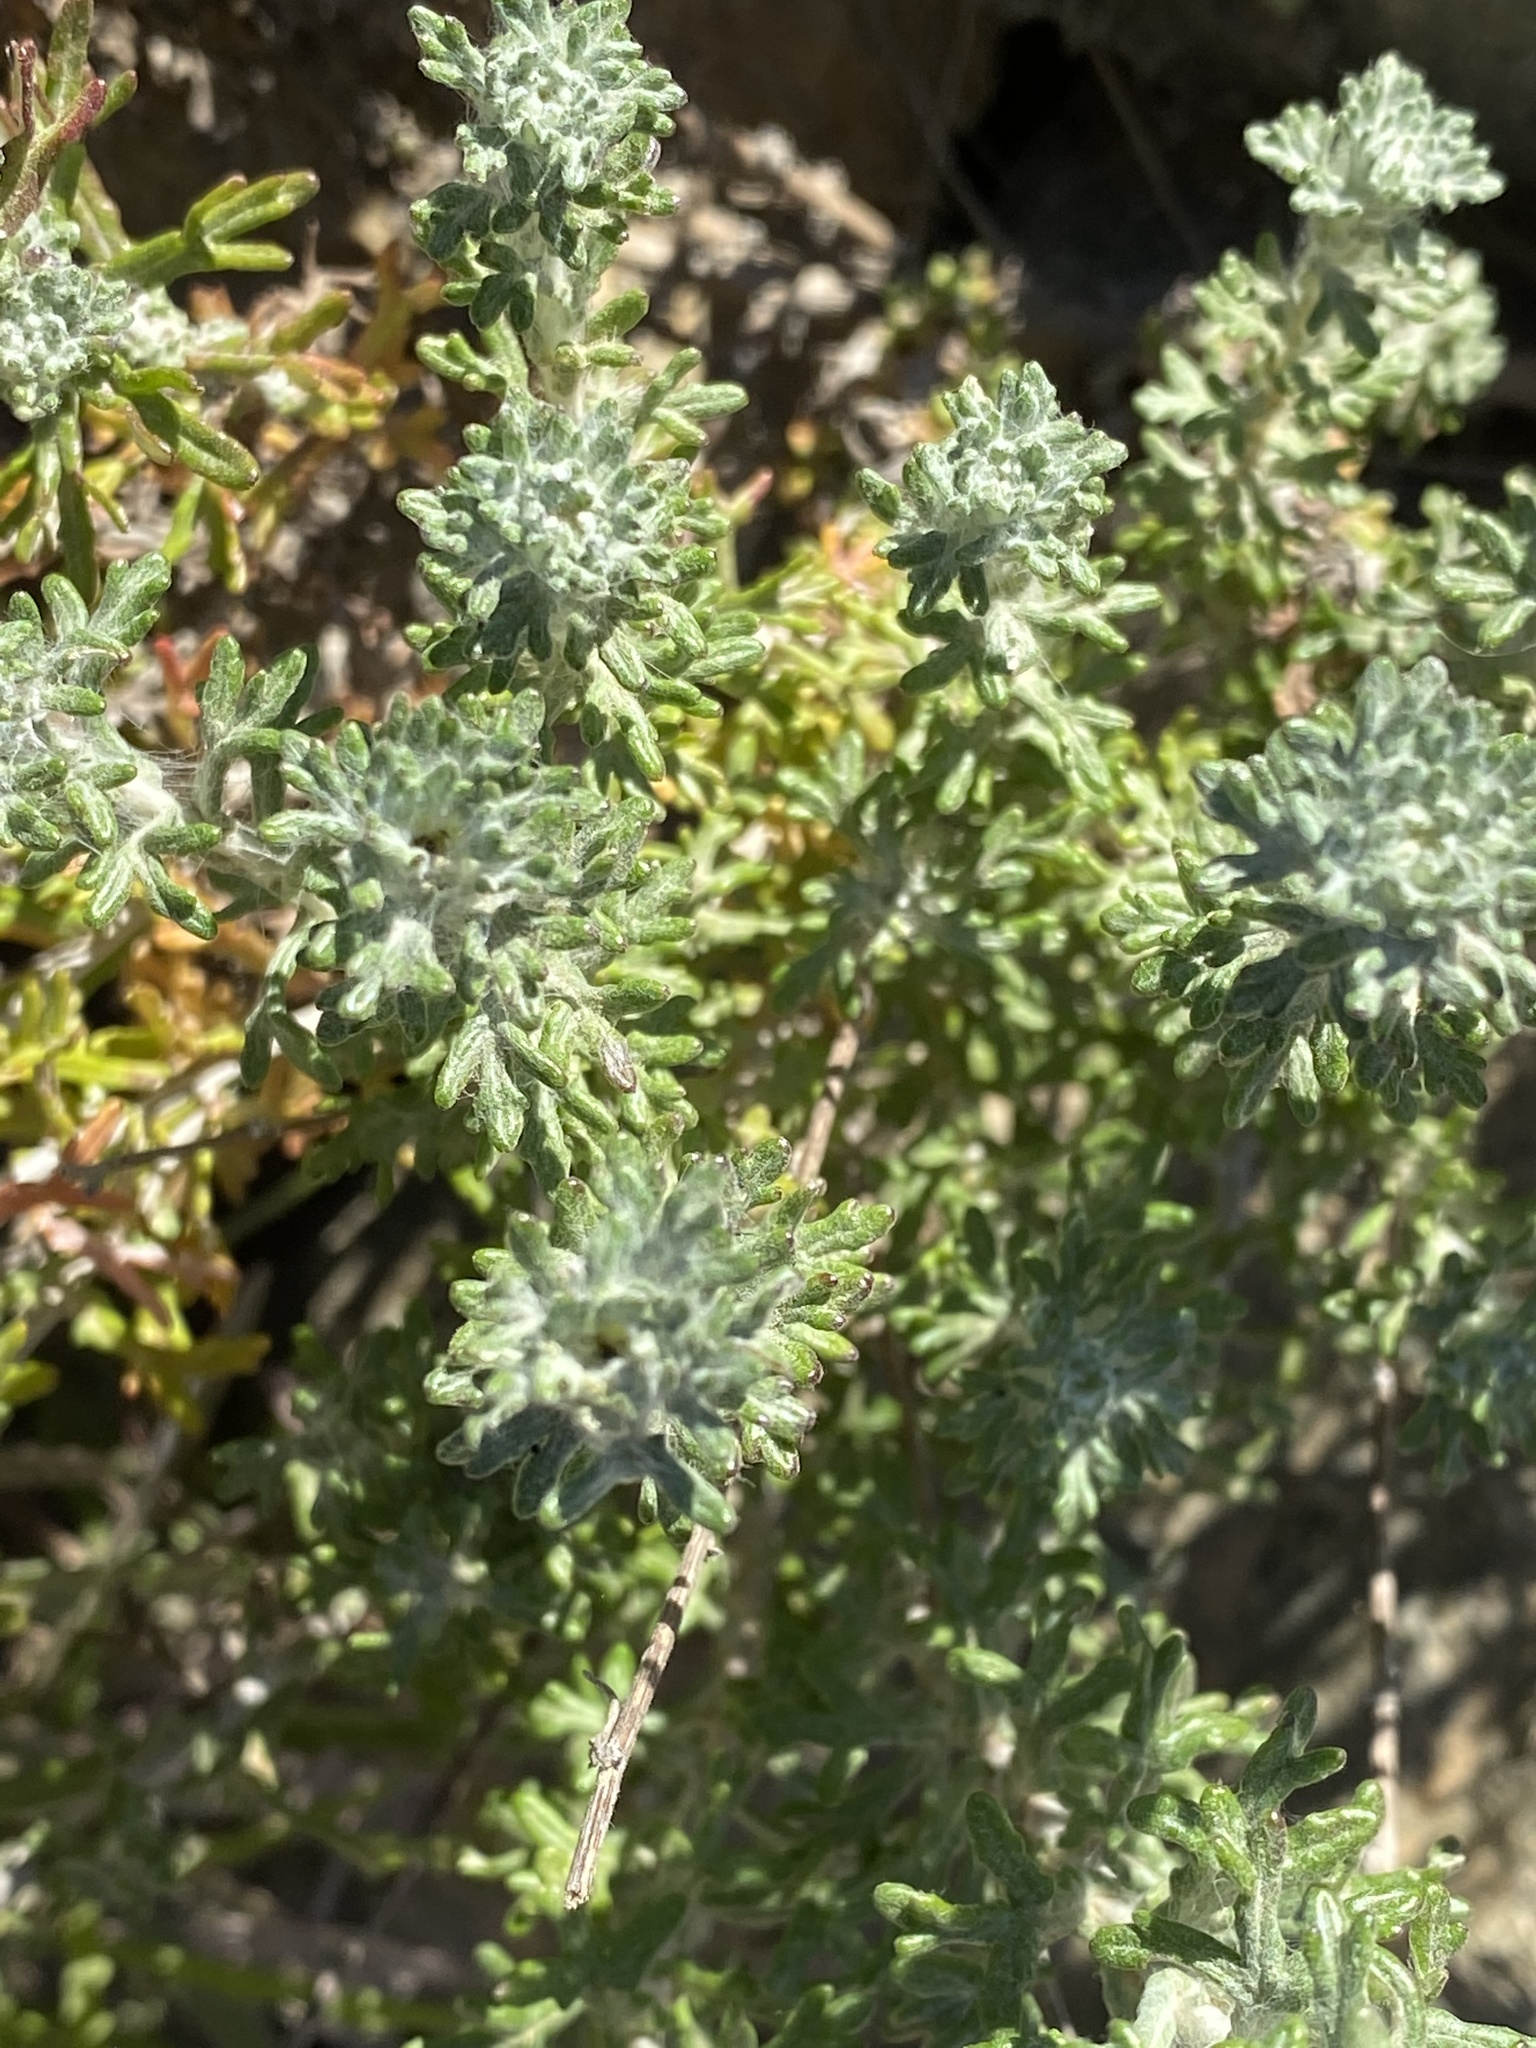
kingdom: Plantae
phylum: Tracheophyta
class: Magnoliopsida
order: Asterales
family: Asteraceae
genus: Eriophyllum
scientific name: Eriophyllum confertiflorum
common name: Golden-yarrow
